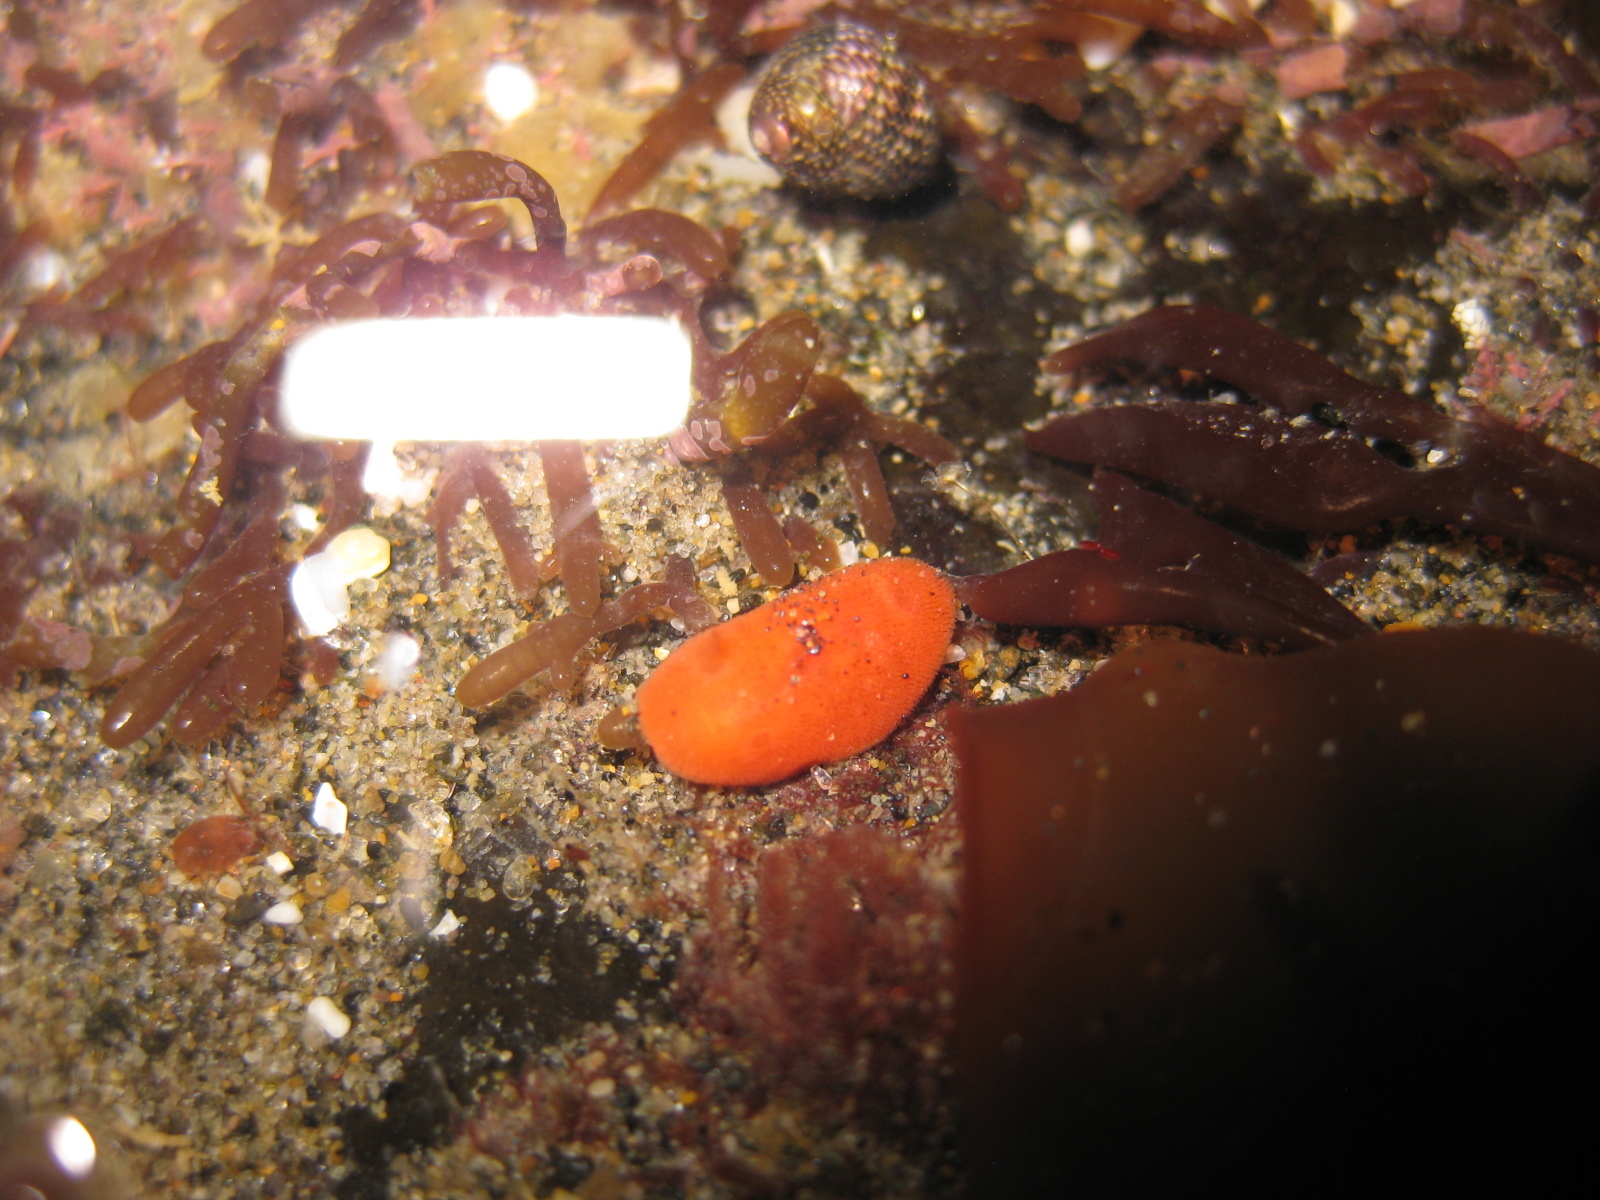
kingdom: Animalia
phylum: Mollusca
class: Gastropoda
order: Nudibranchia
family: Discodorididae
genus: Rostanga
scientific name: Rostanga muscula
